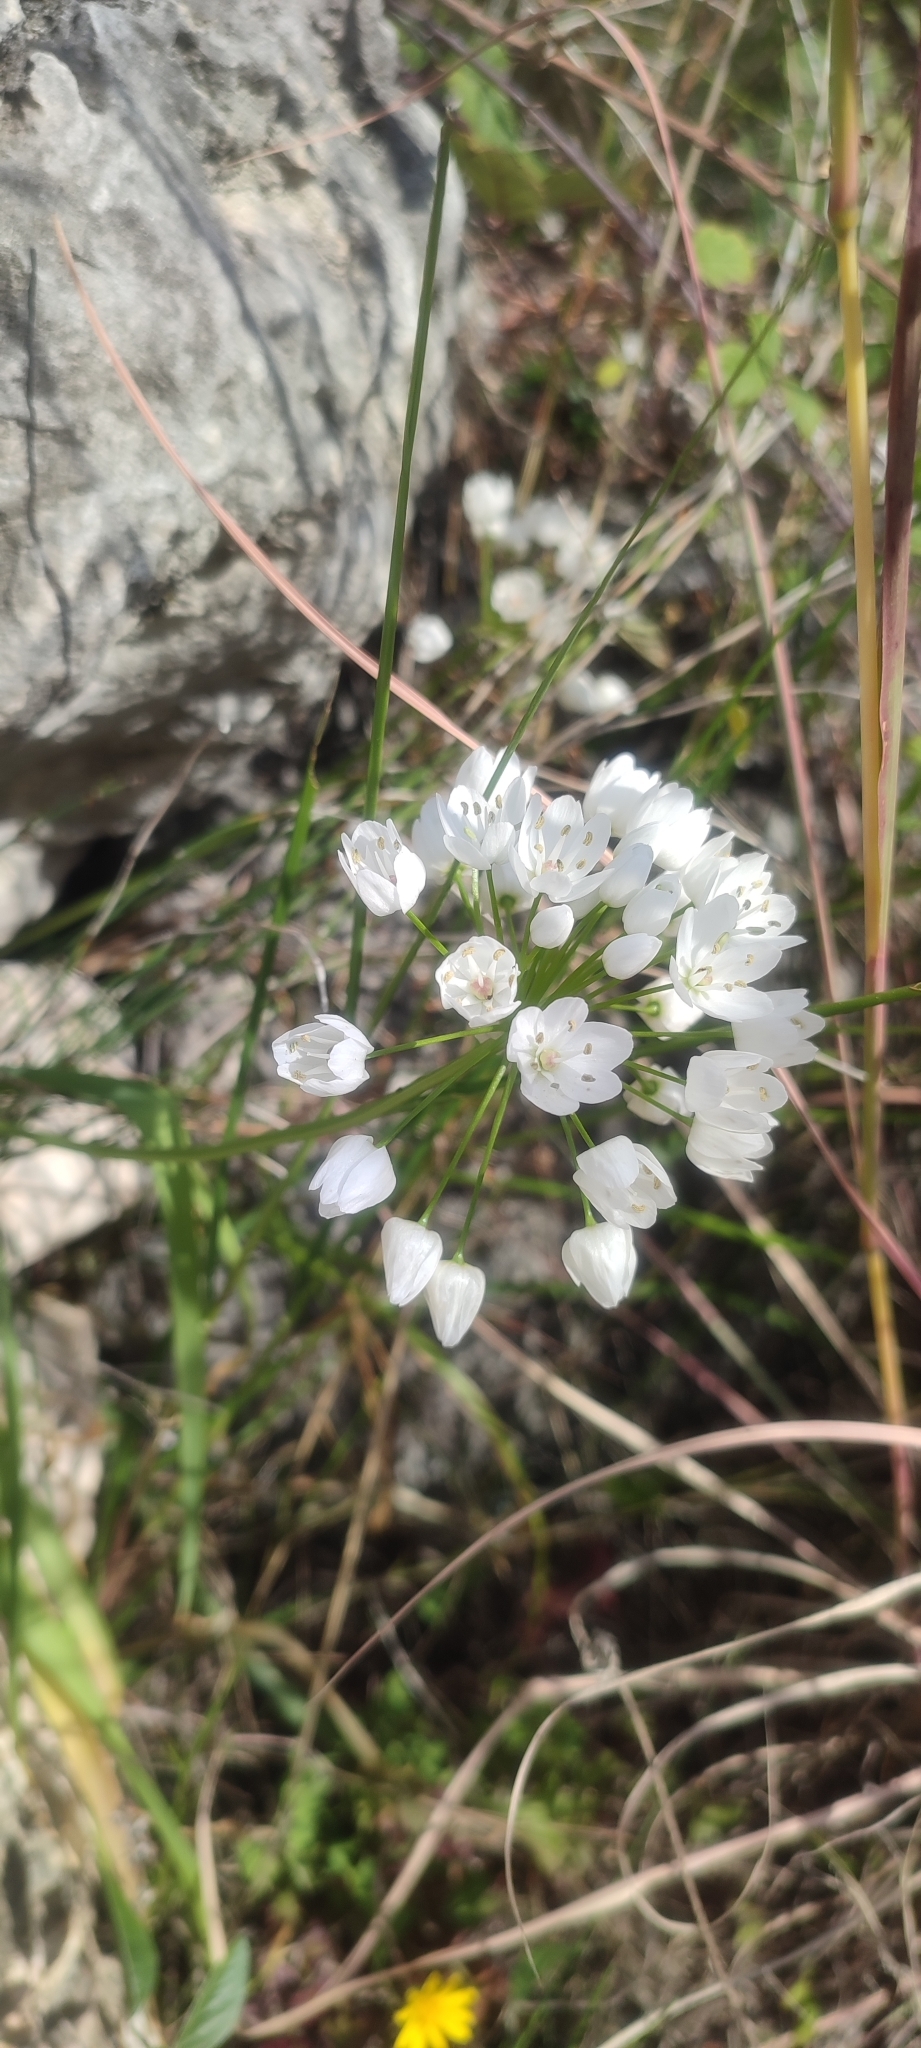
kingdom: Plantae
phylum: Tracheophyta
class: Liliopsida
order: Asparagales
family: Amaryllidaceae
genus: Allium
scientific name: Allium neapolitanum
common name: Neapolitan garlic
